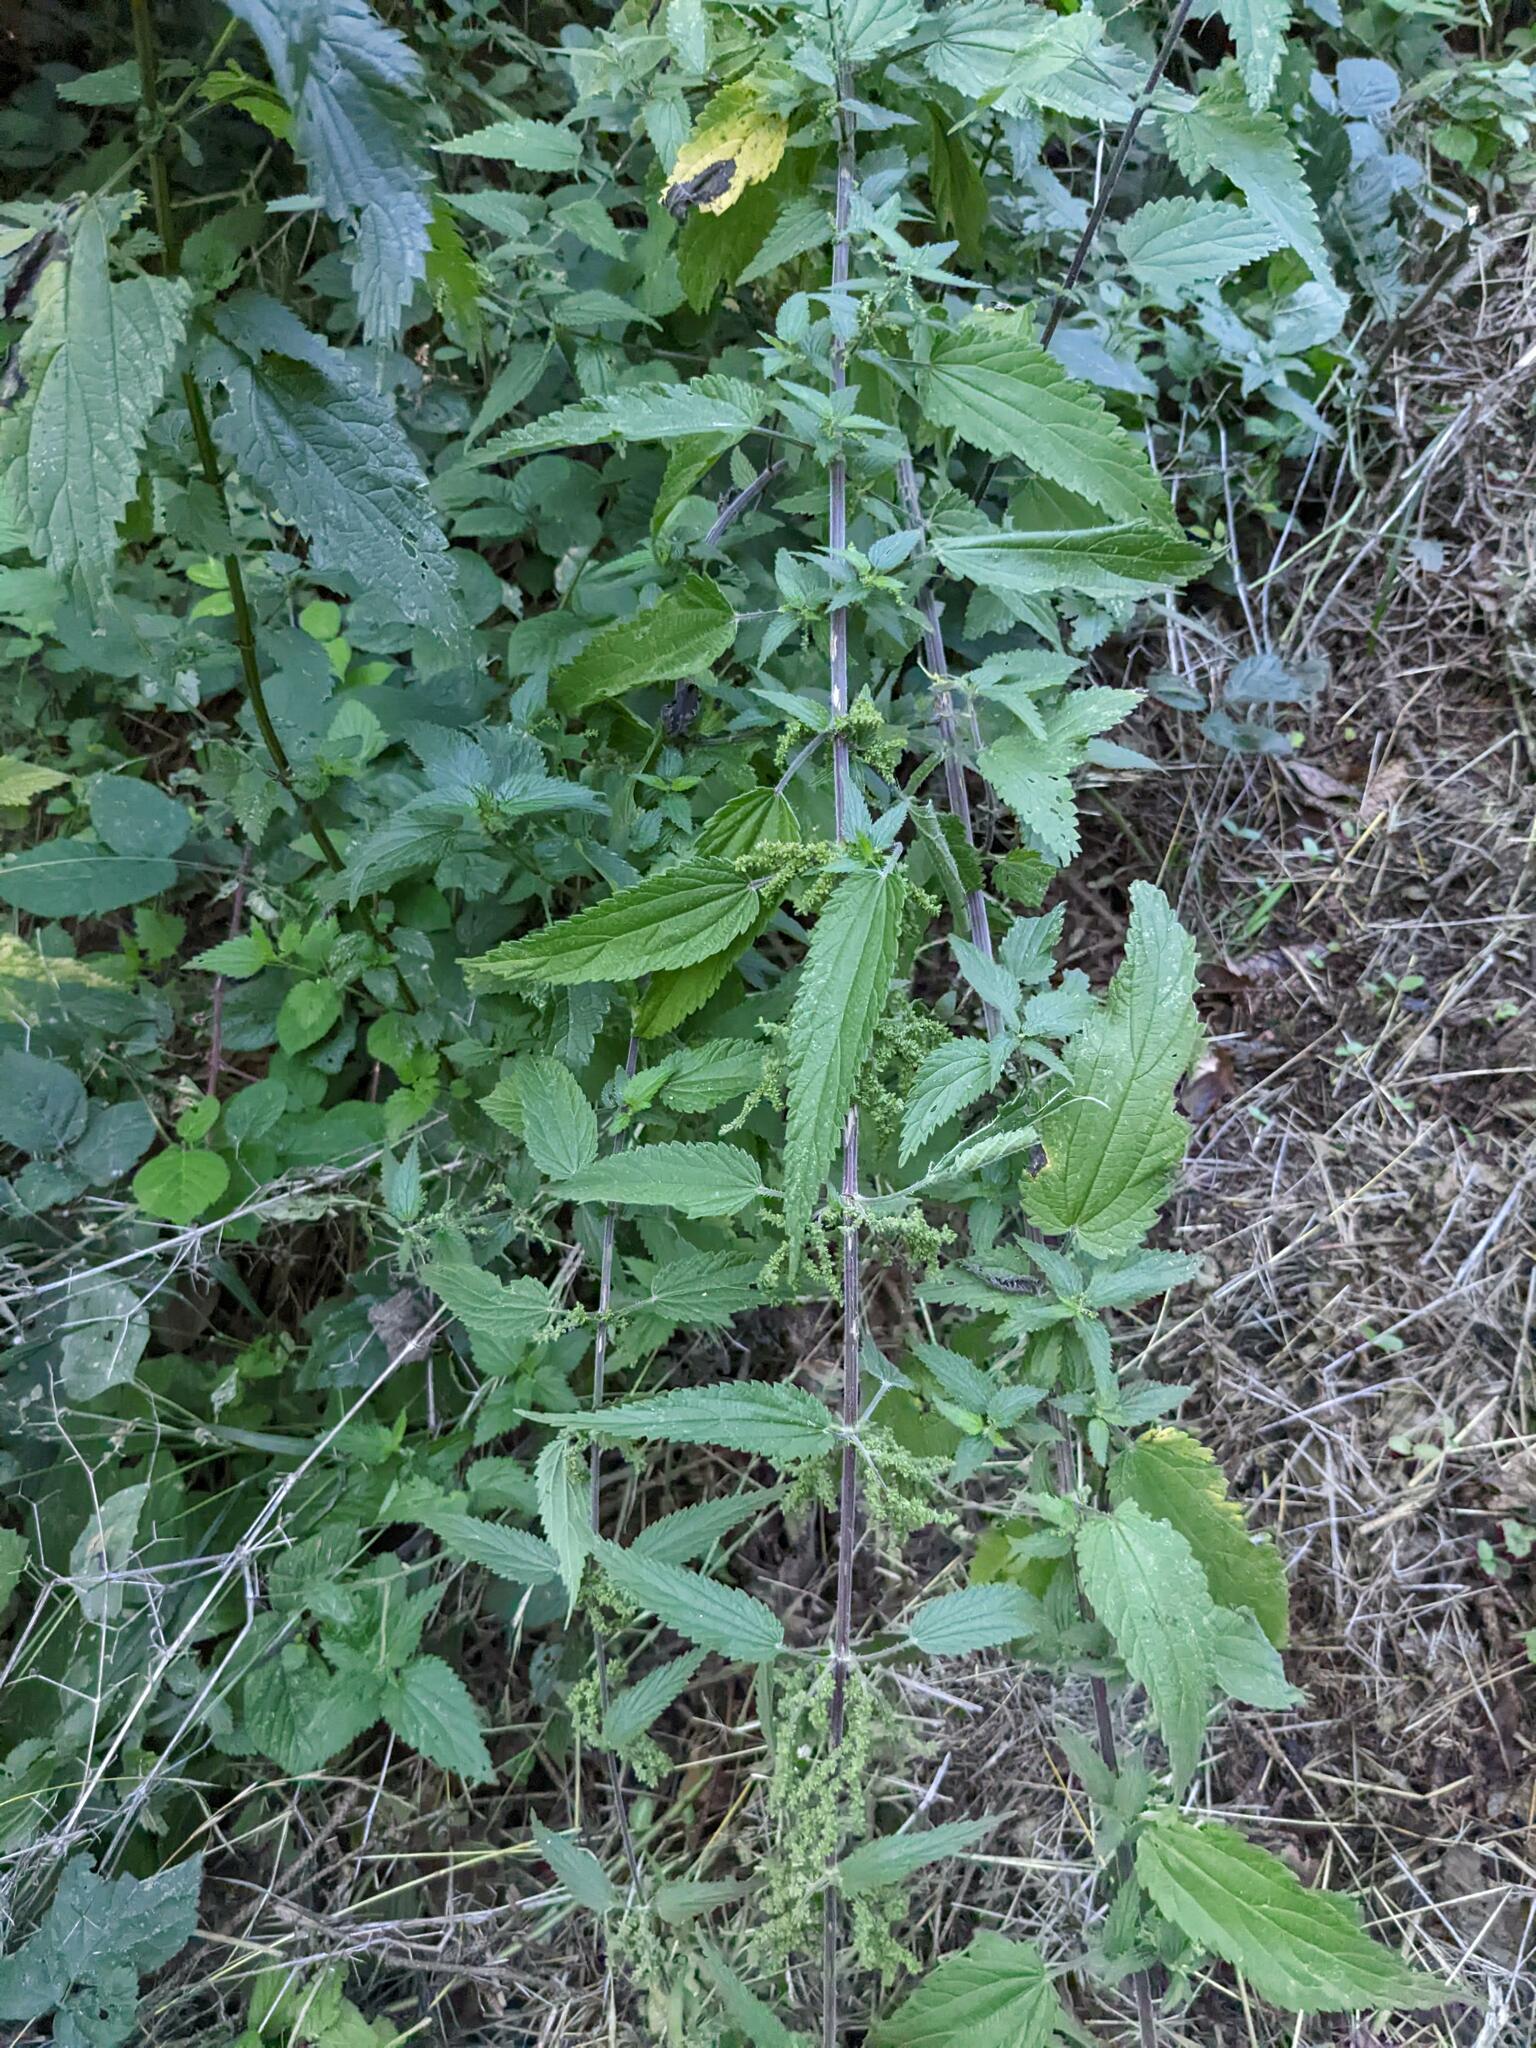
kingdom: Plantae
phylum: Tracheophyta
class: Magnoliopsida
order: Rosales
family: Urticaceae
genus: Urtica
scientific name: Urtica dioica
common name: Common nettle
